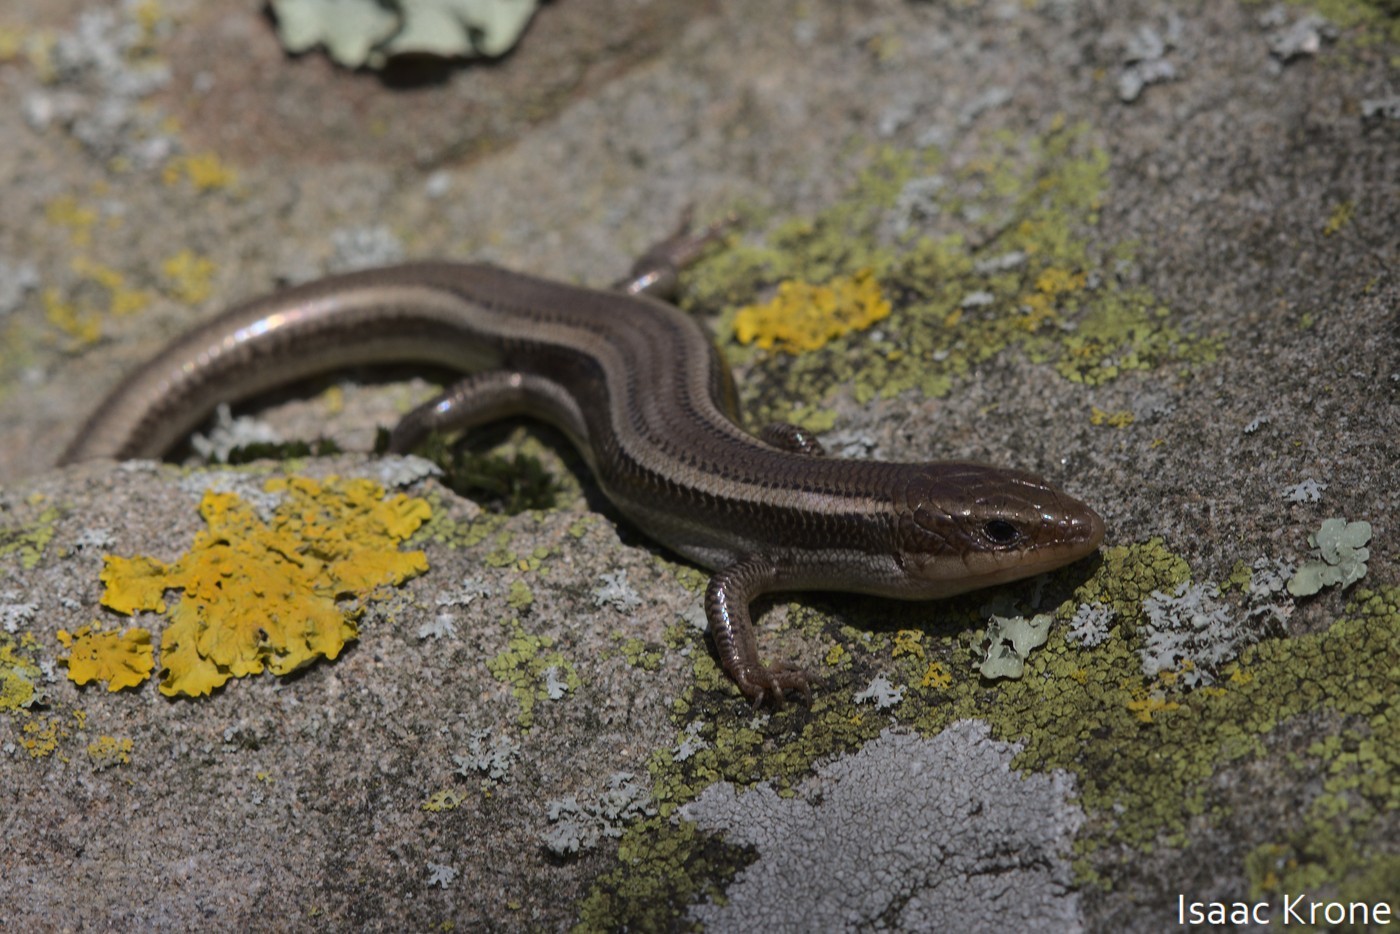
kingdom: Animalia
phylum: Chordata
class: Squamata
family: Scincidae
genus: Plestiodon
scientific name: Plestiodon skiltonianus
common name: Coronado island skink [interparietalis]
